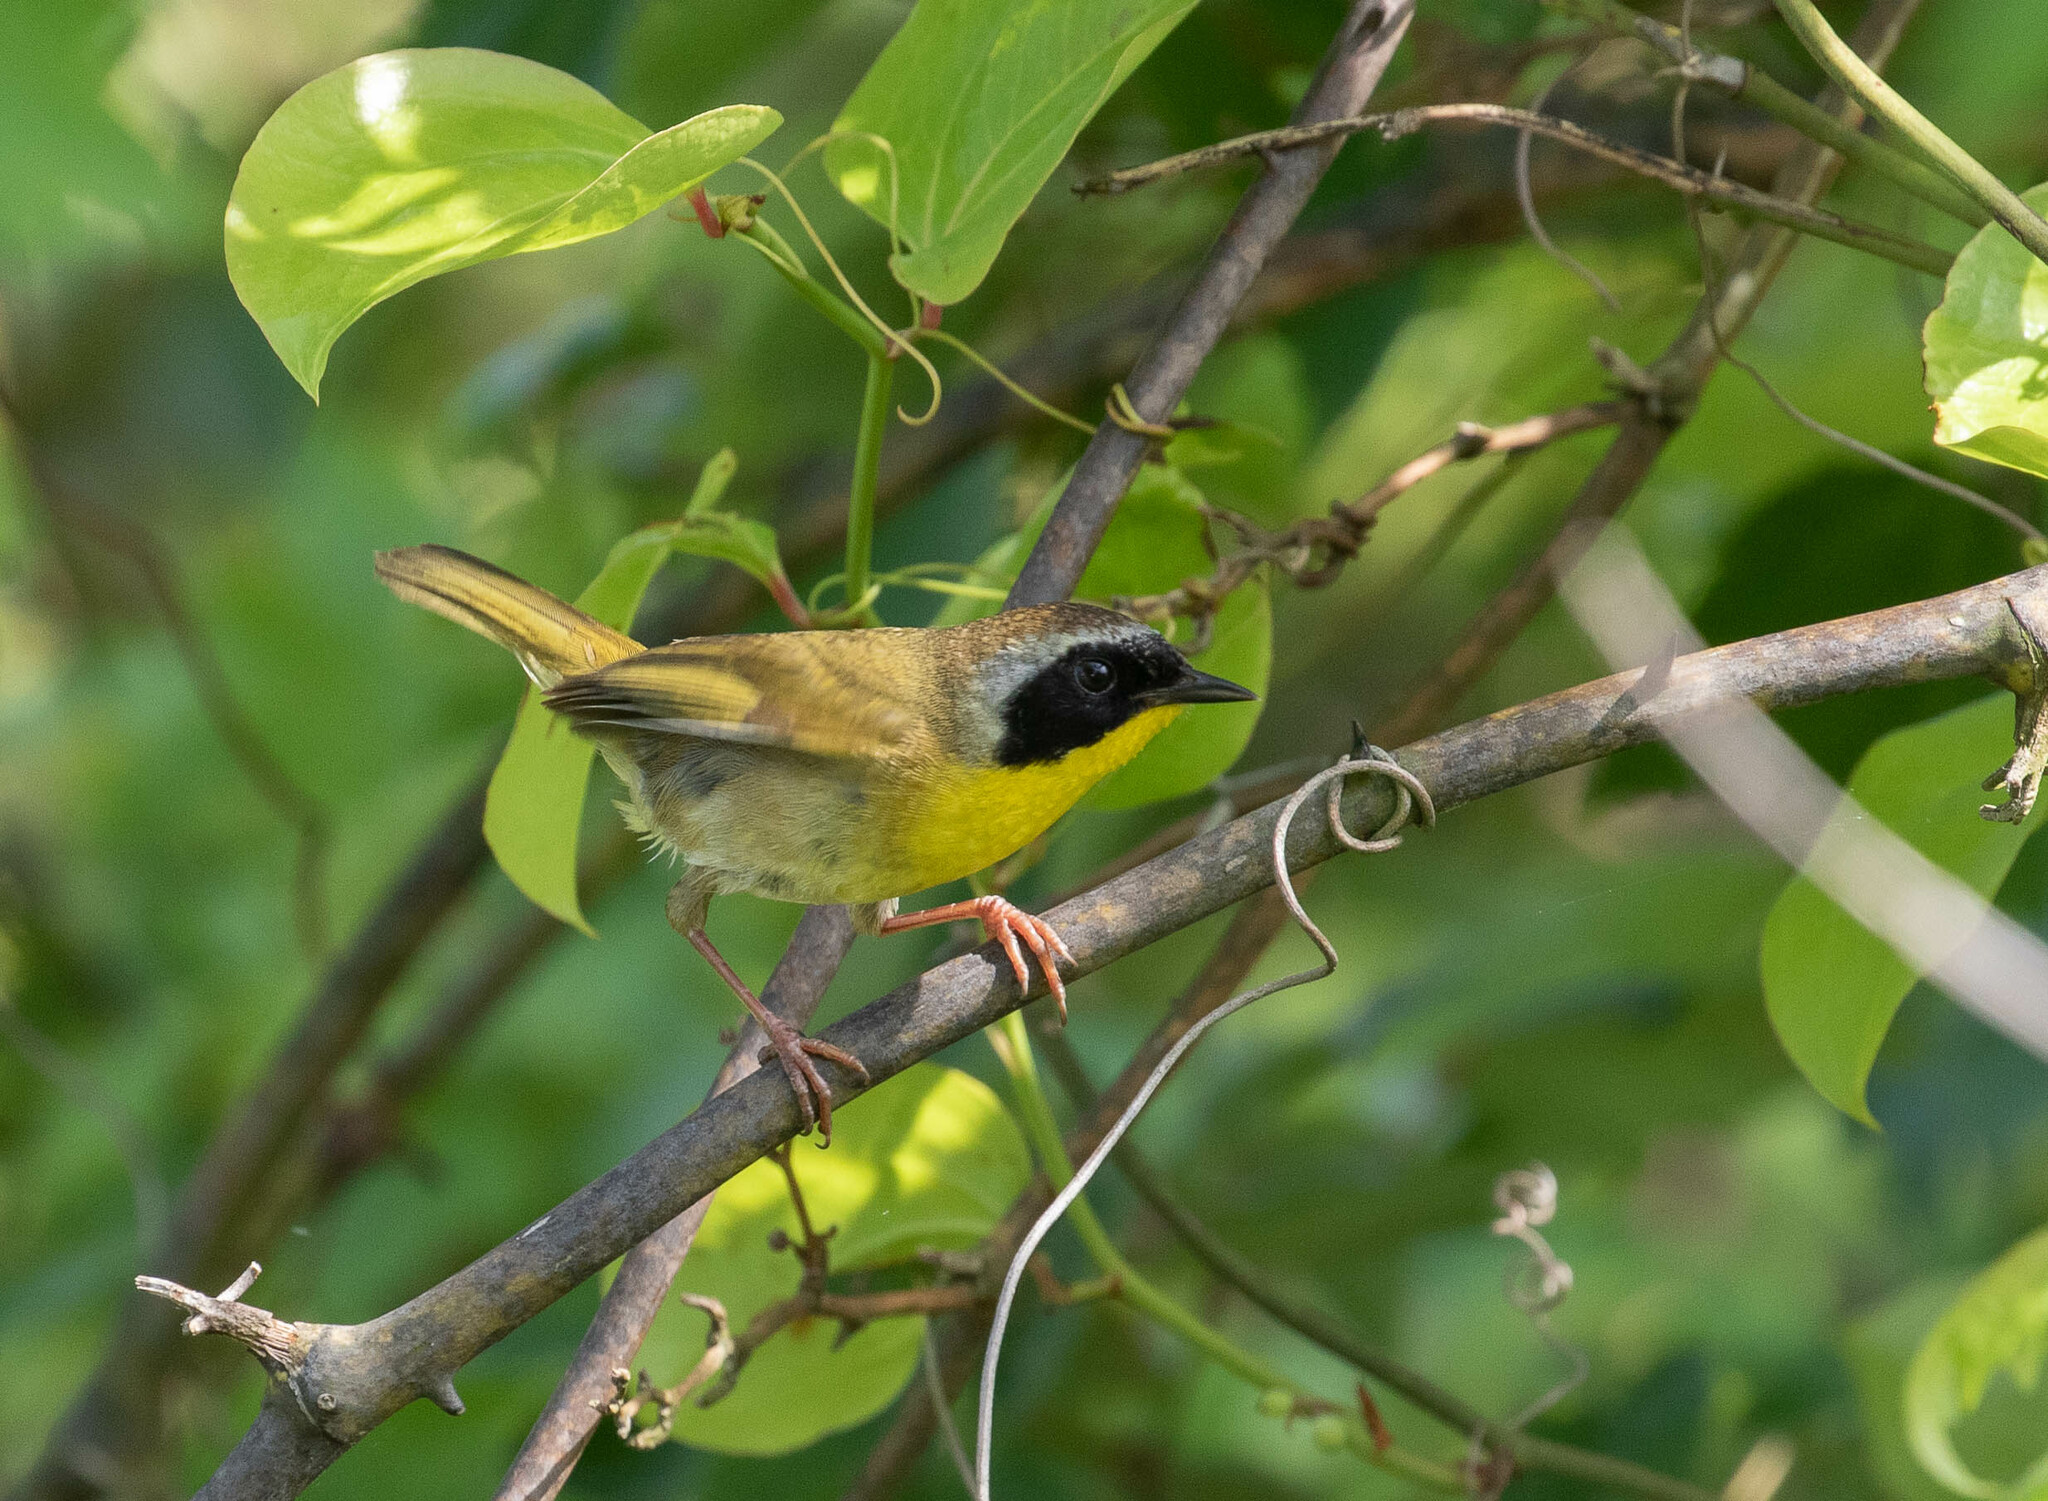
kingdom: Animalia
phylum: Chordata
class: Aves
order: Passeriformes
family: Parulidae
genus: Geothlypis
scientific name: Geothlypis trichas
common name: Common yellowthroat
